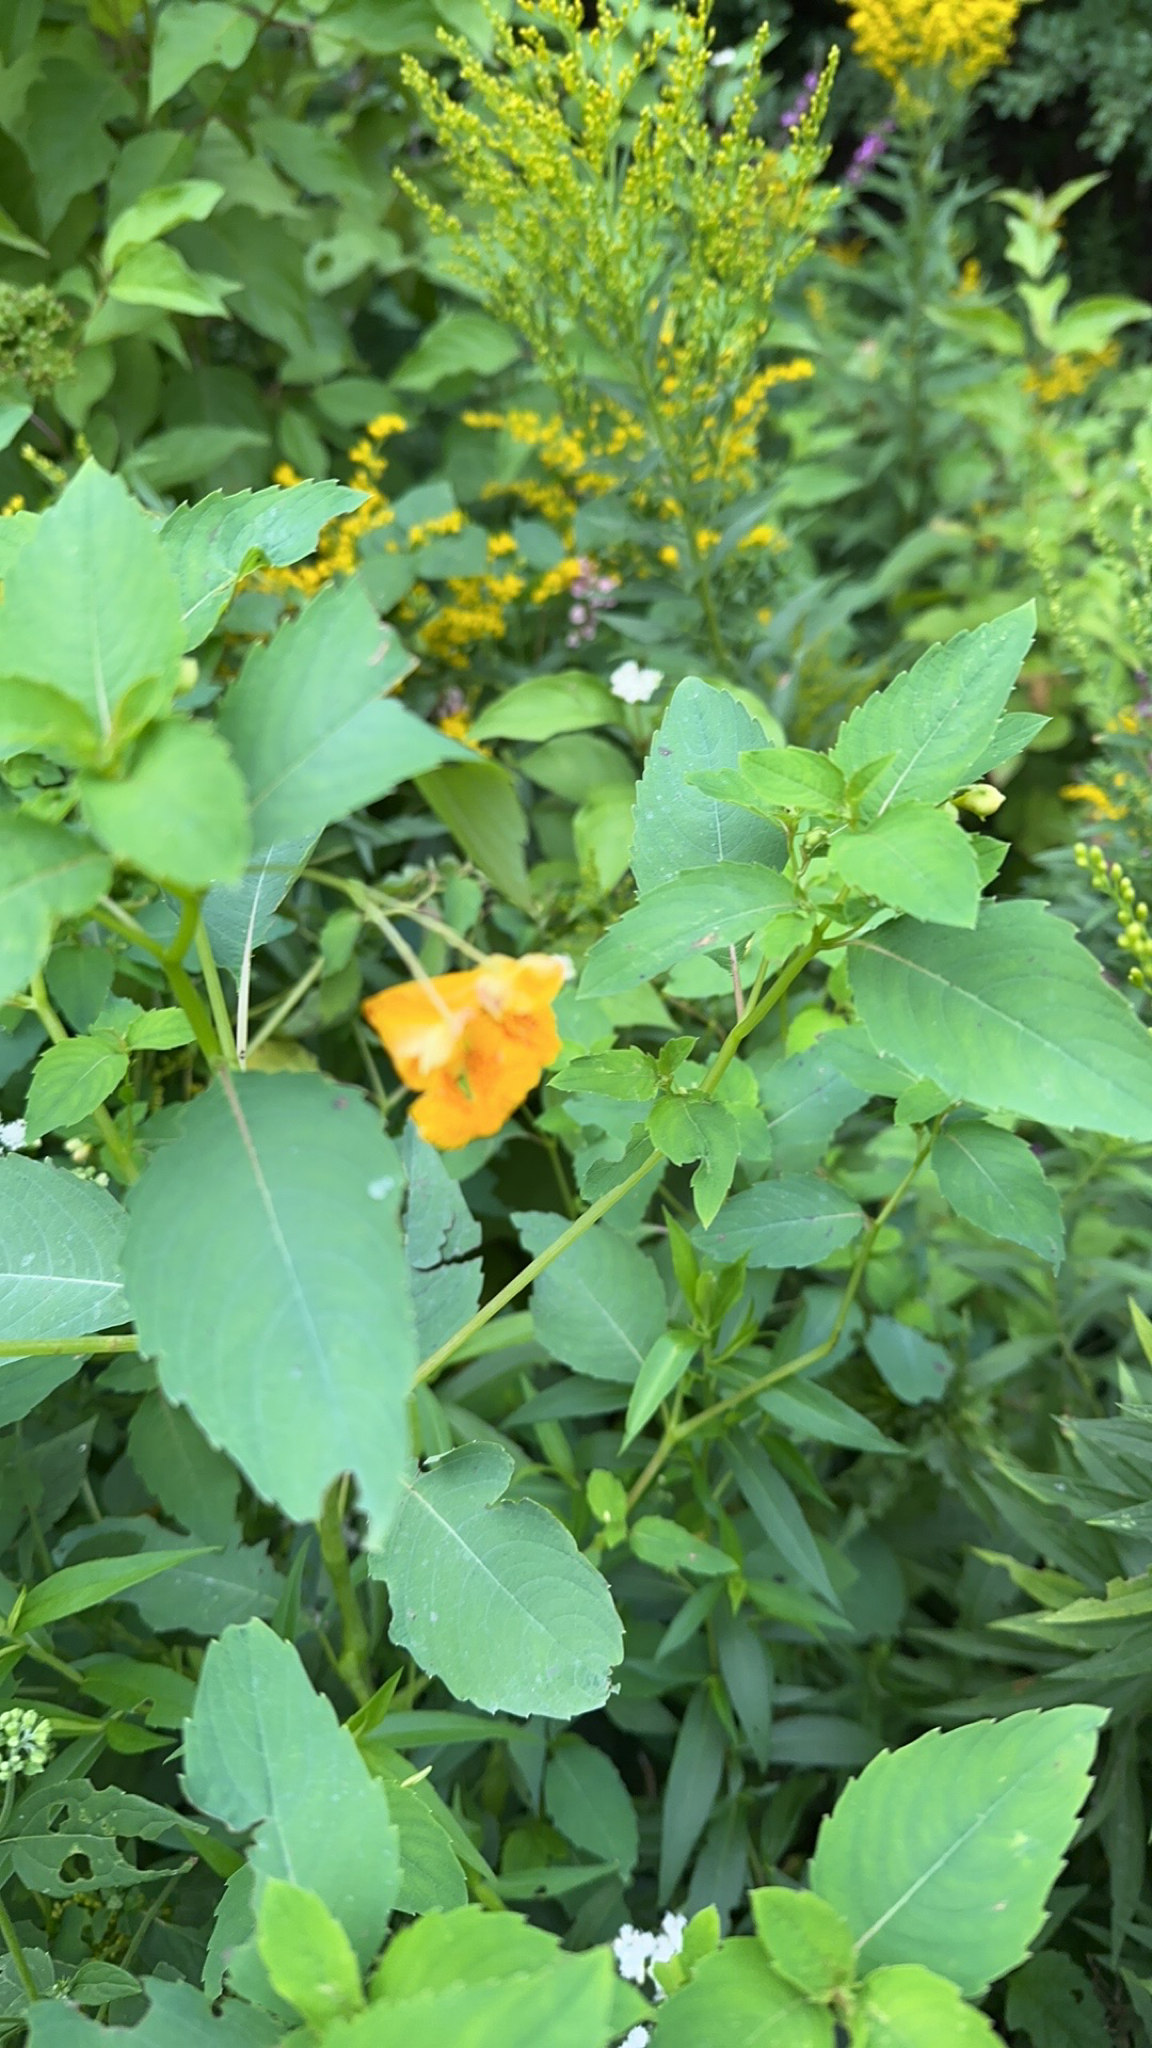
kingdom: Plantae
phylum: Tracheophyta
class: Magnoliopsida
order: Ericales
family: Balsaminaceae
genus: Impatiens
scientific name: Impatiens capensis
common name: Orange balsam
